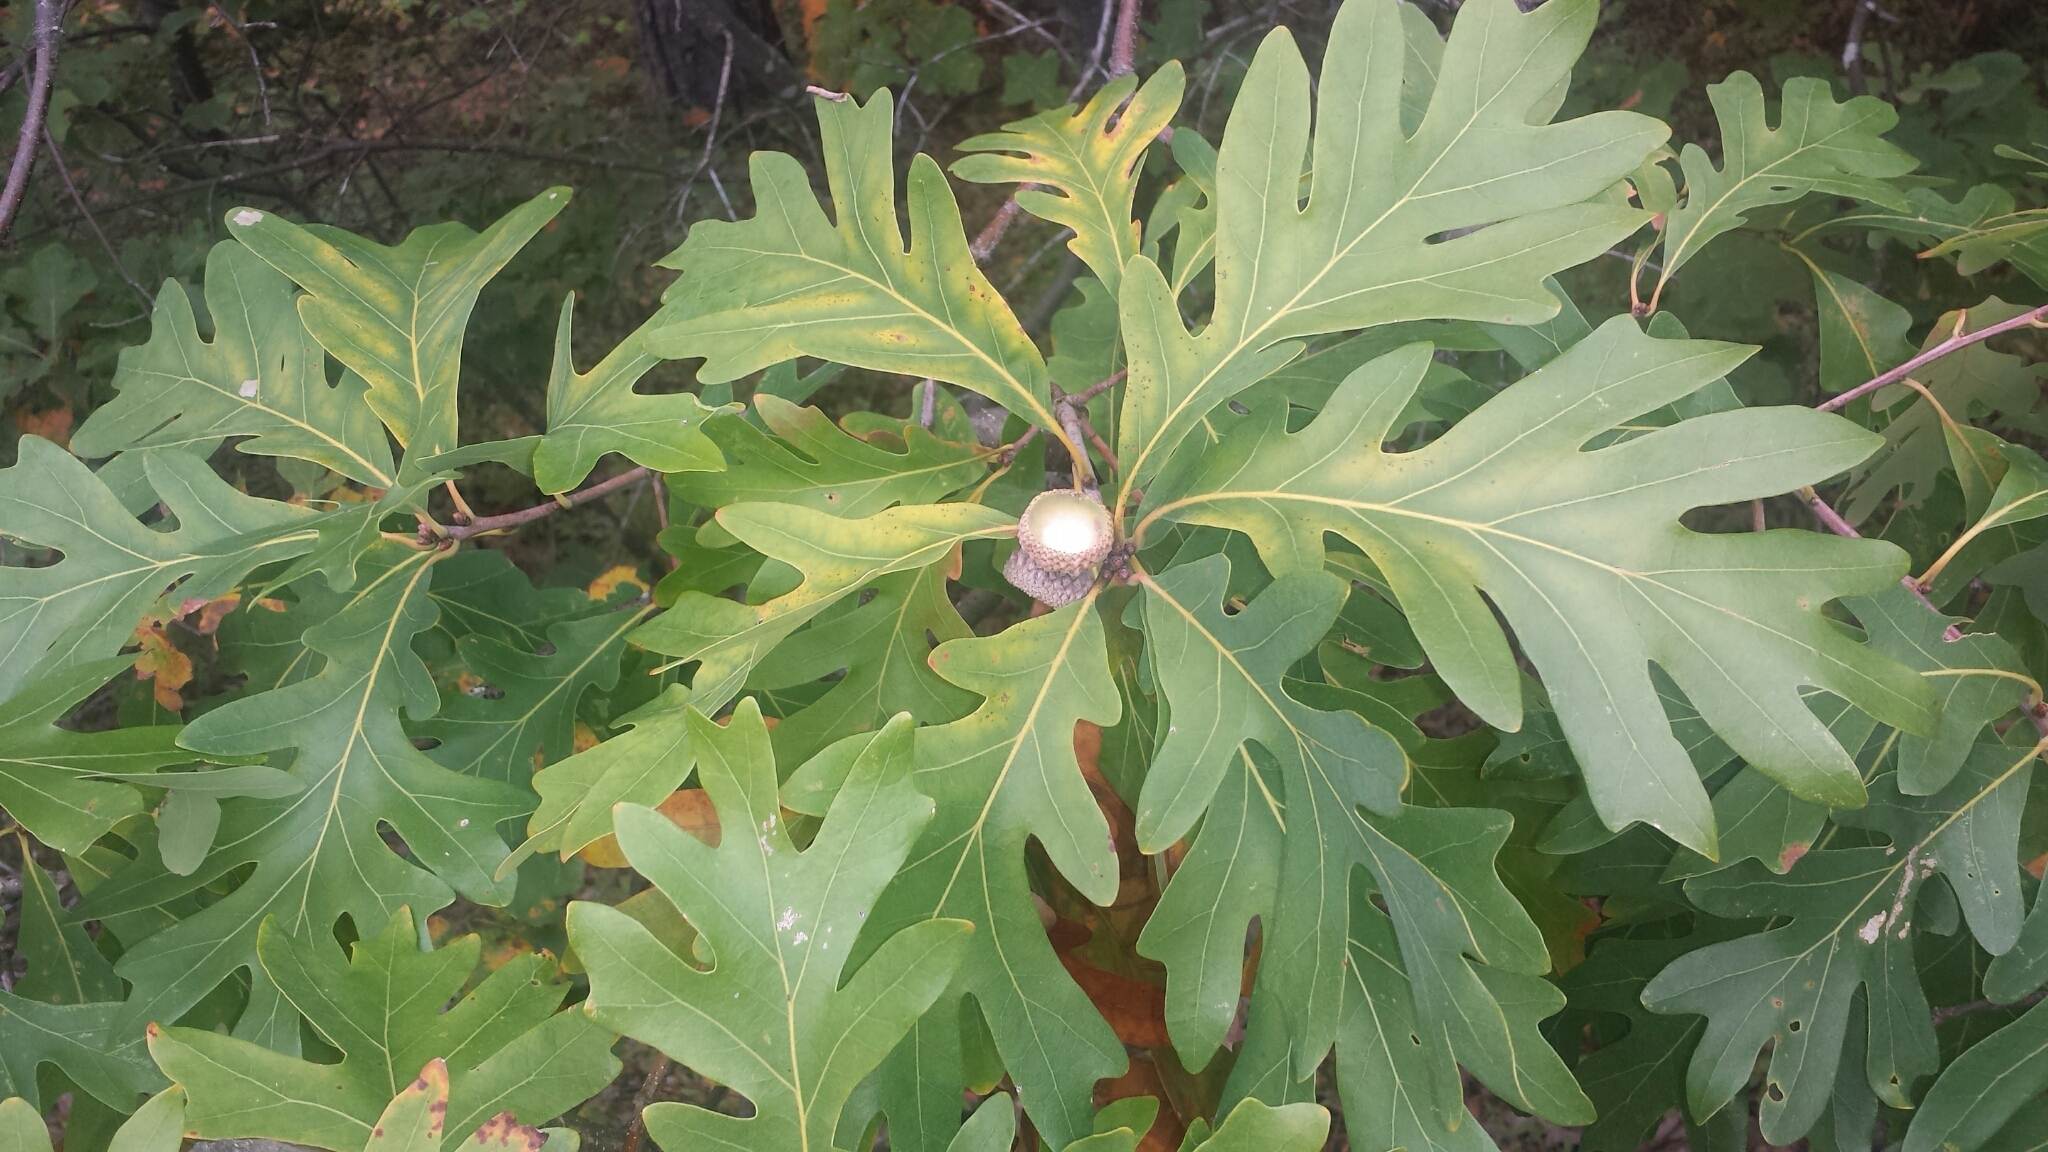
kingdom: Plantae
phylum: Tracheophyta
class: Magnoliopsida
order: Fagales
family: Fagaceae
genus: Quercus
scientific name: Quercus alba
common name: White oak
